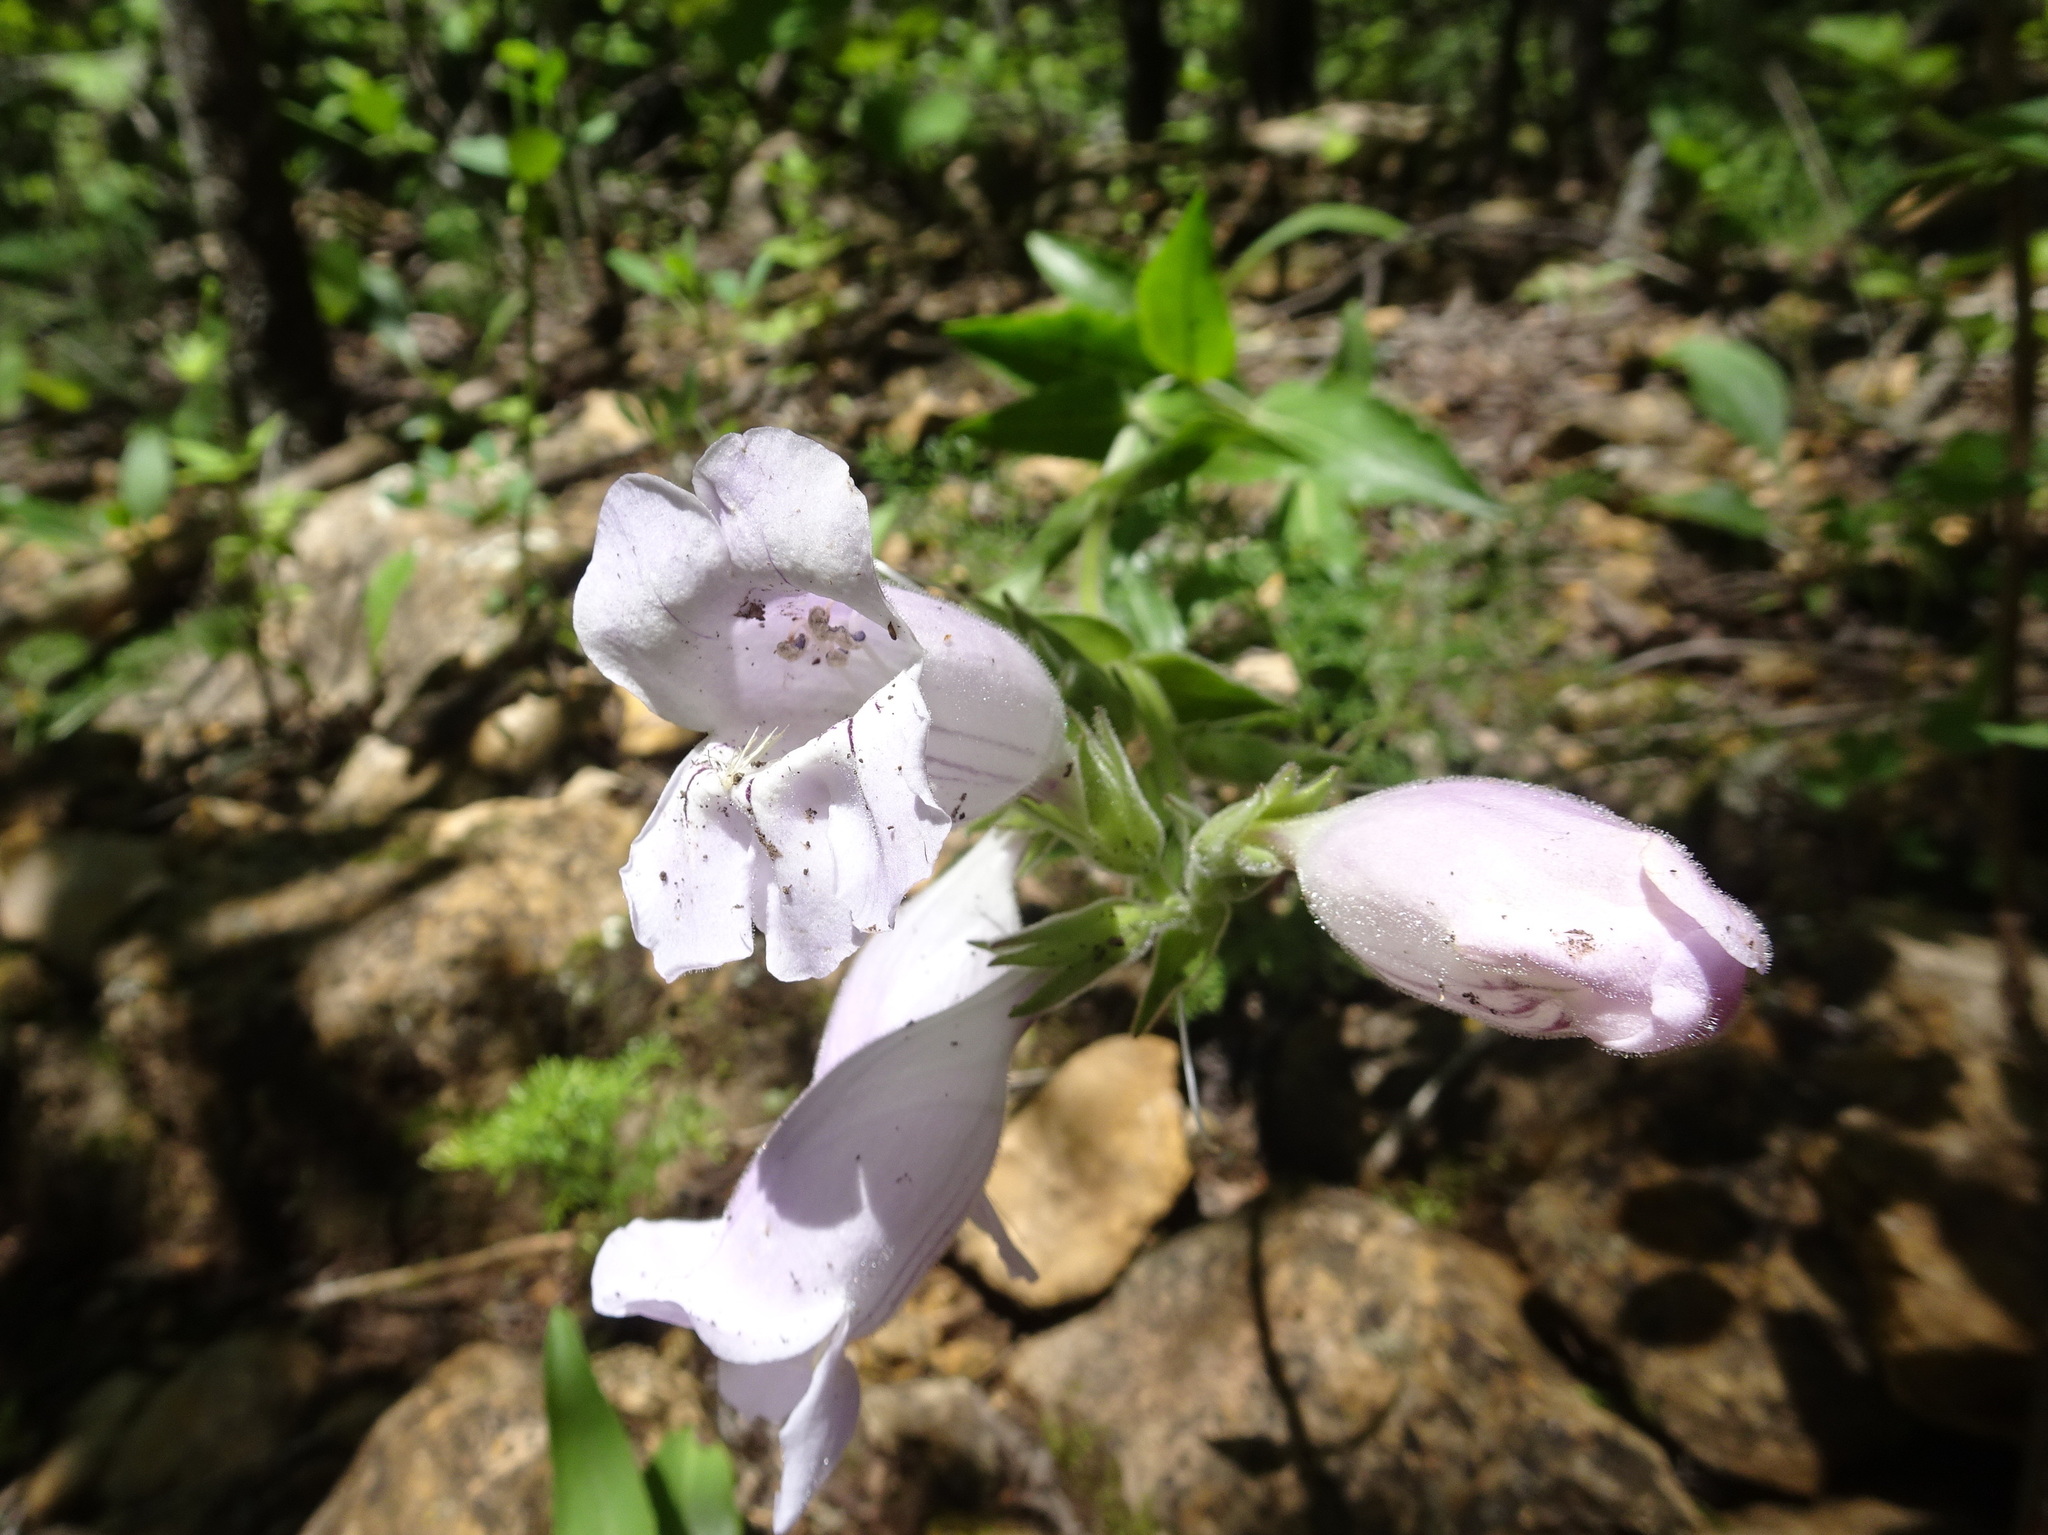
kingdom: Plantae
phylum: Tracheophyta
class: Magnoliopsida
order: Lamiales
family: Plantaginaceae
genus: Penstemon
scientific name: Penstemon cobaea
